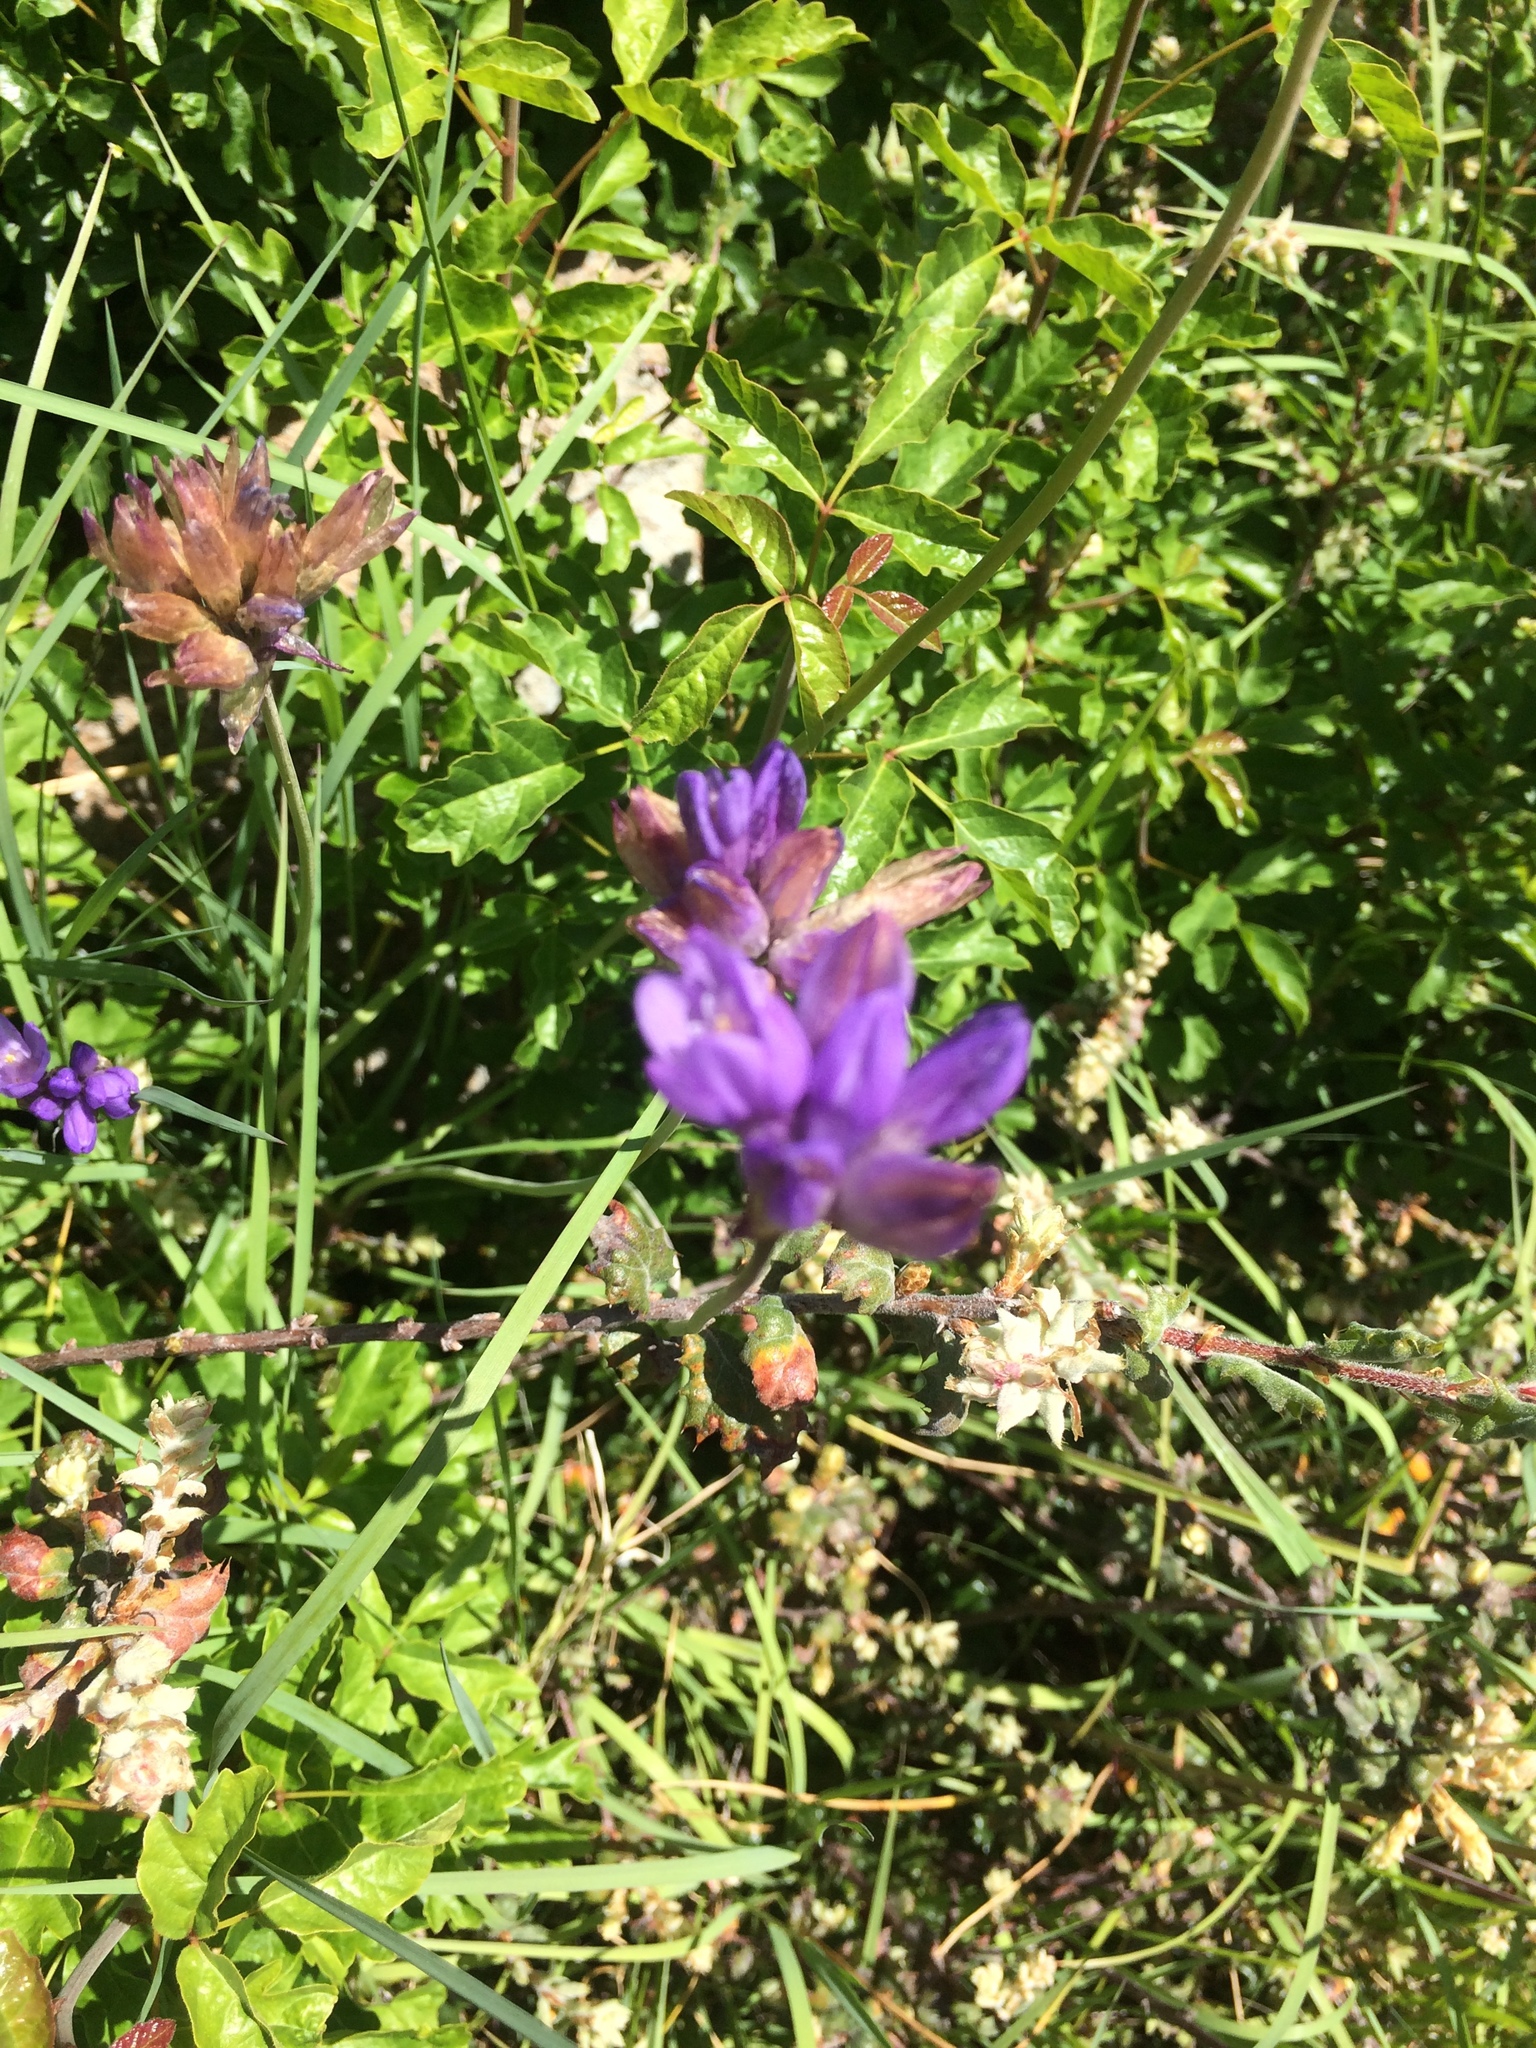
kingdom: Plantae
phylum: Tracheophyta
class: Liliopsida
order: Asparagales
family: Asparagaceae
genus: Dichelostemma
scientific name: Dichelostemma congestum
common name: Fork-tooth ookow
